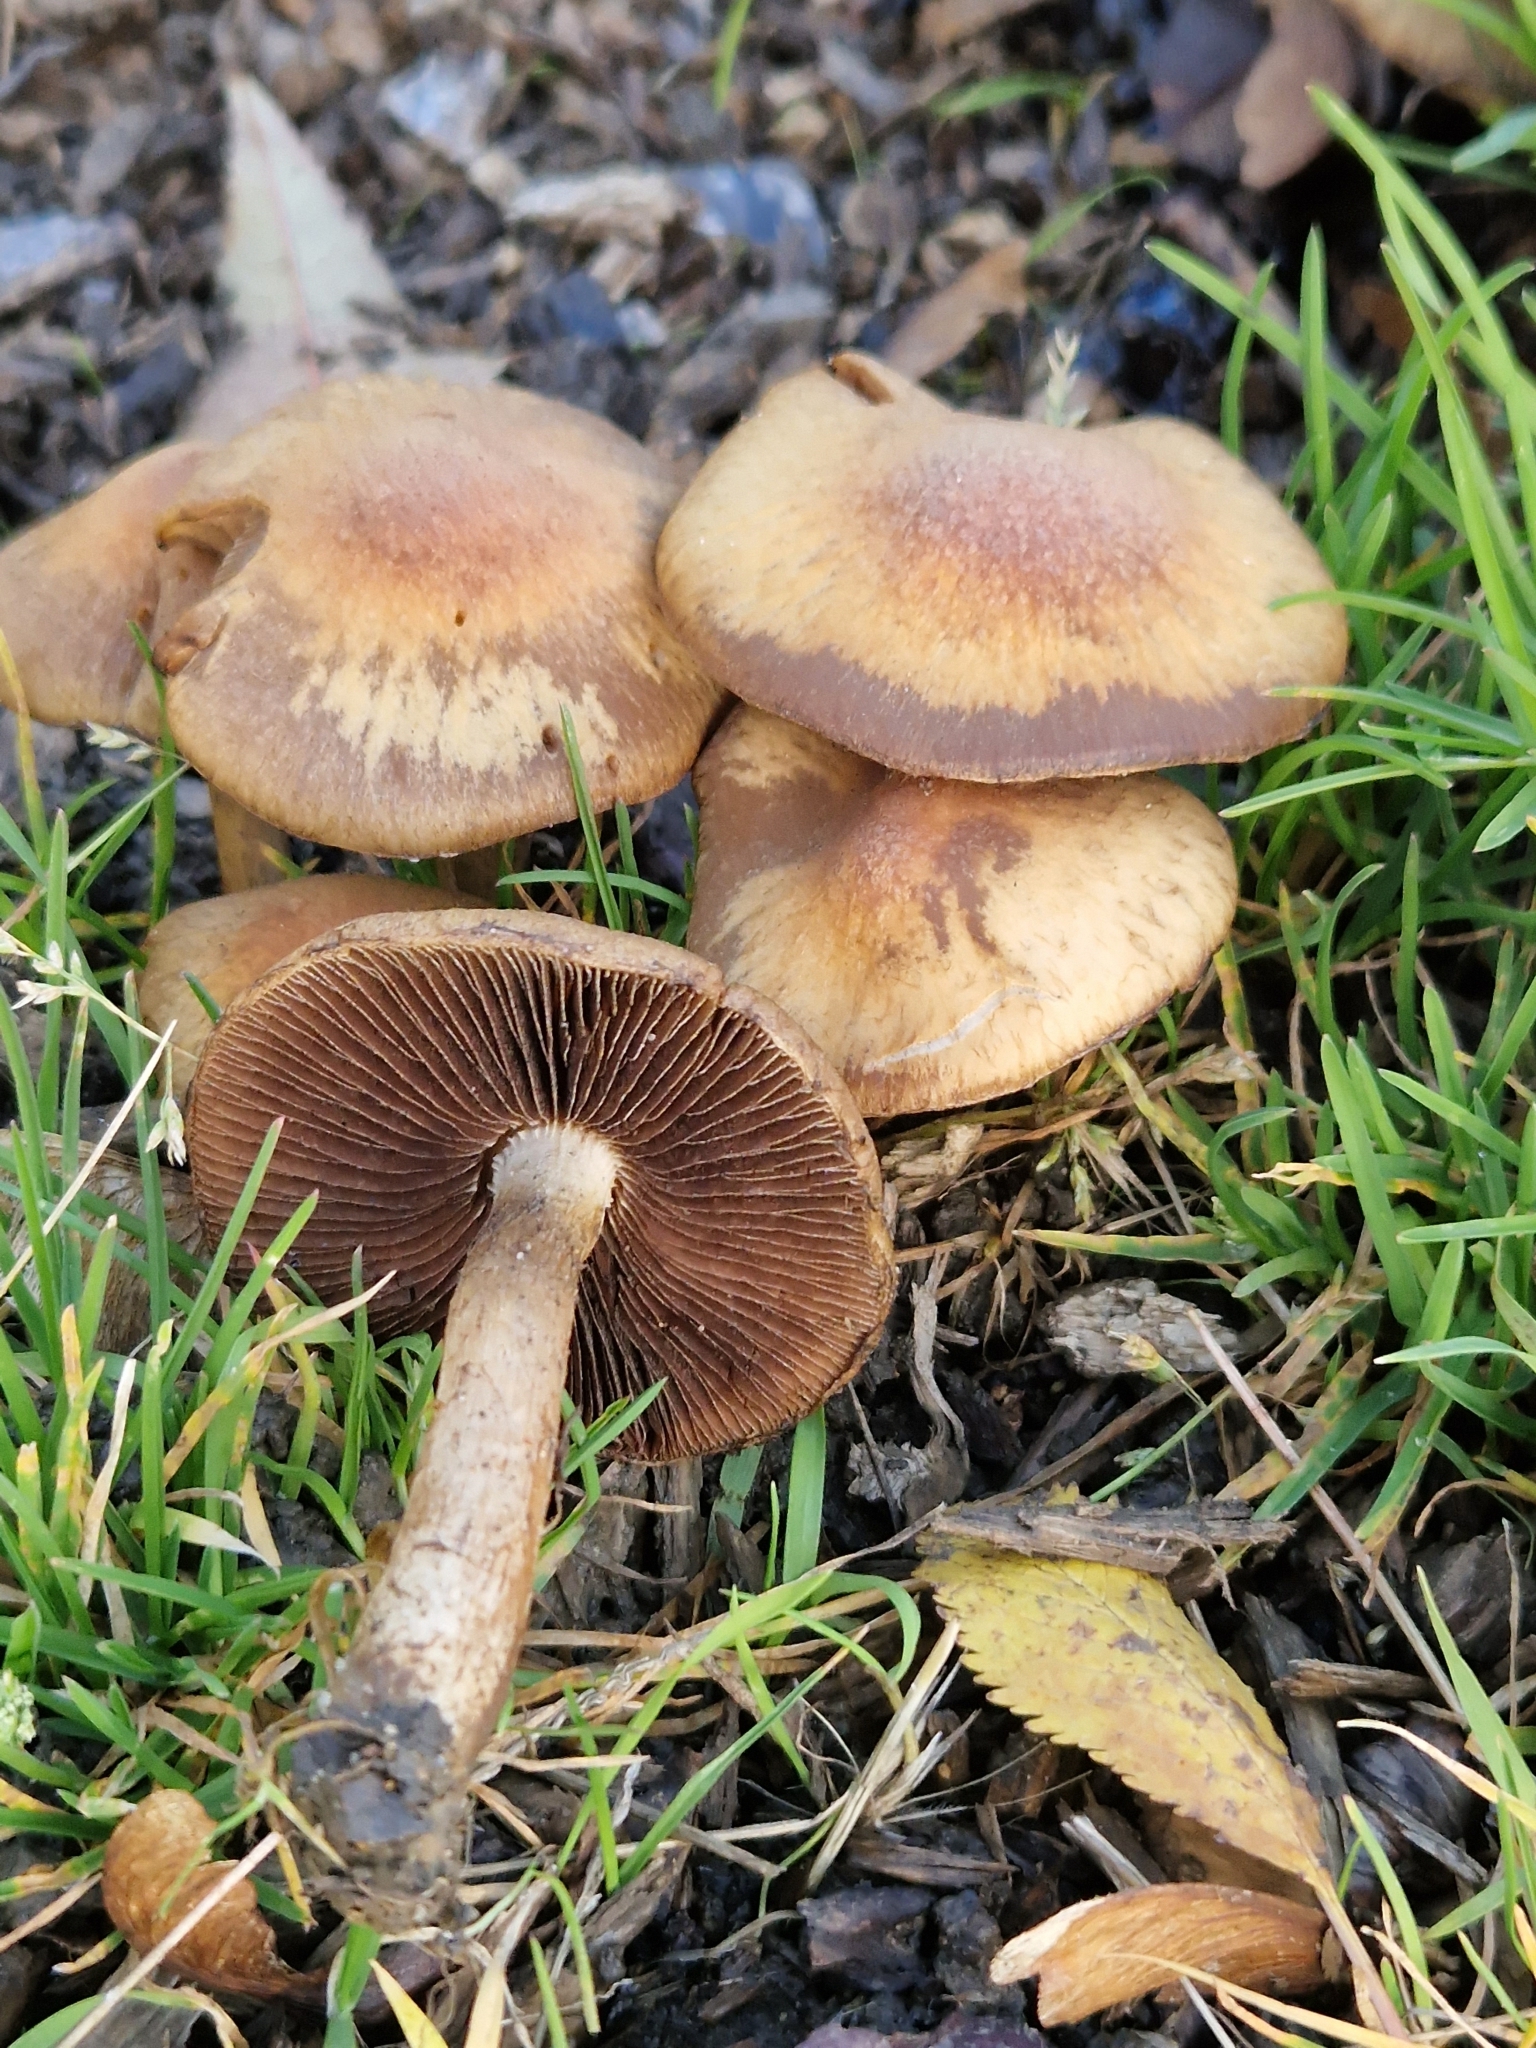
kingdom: Fungi
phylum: Basidiomycota
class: Agaricomycetes
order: Agaricales
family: Psathyrellaceae
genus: Lacrymaria
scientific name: Lacrymaria lacrymabunda
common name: Weeping widow
